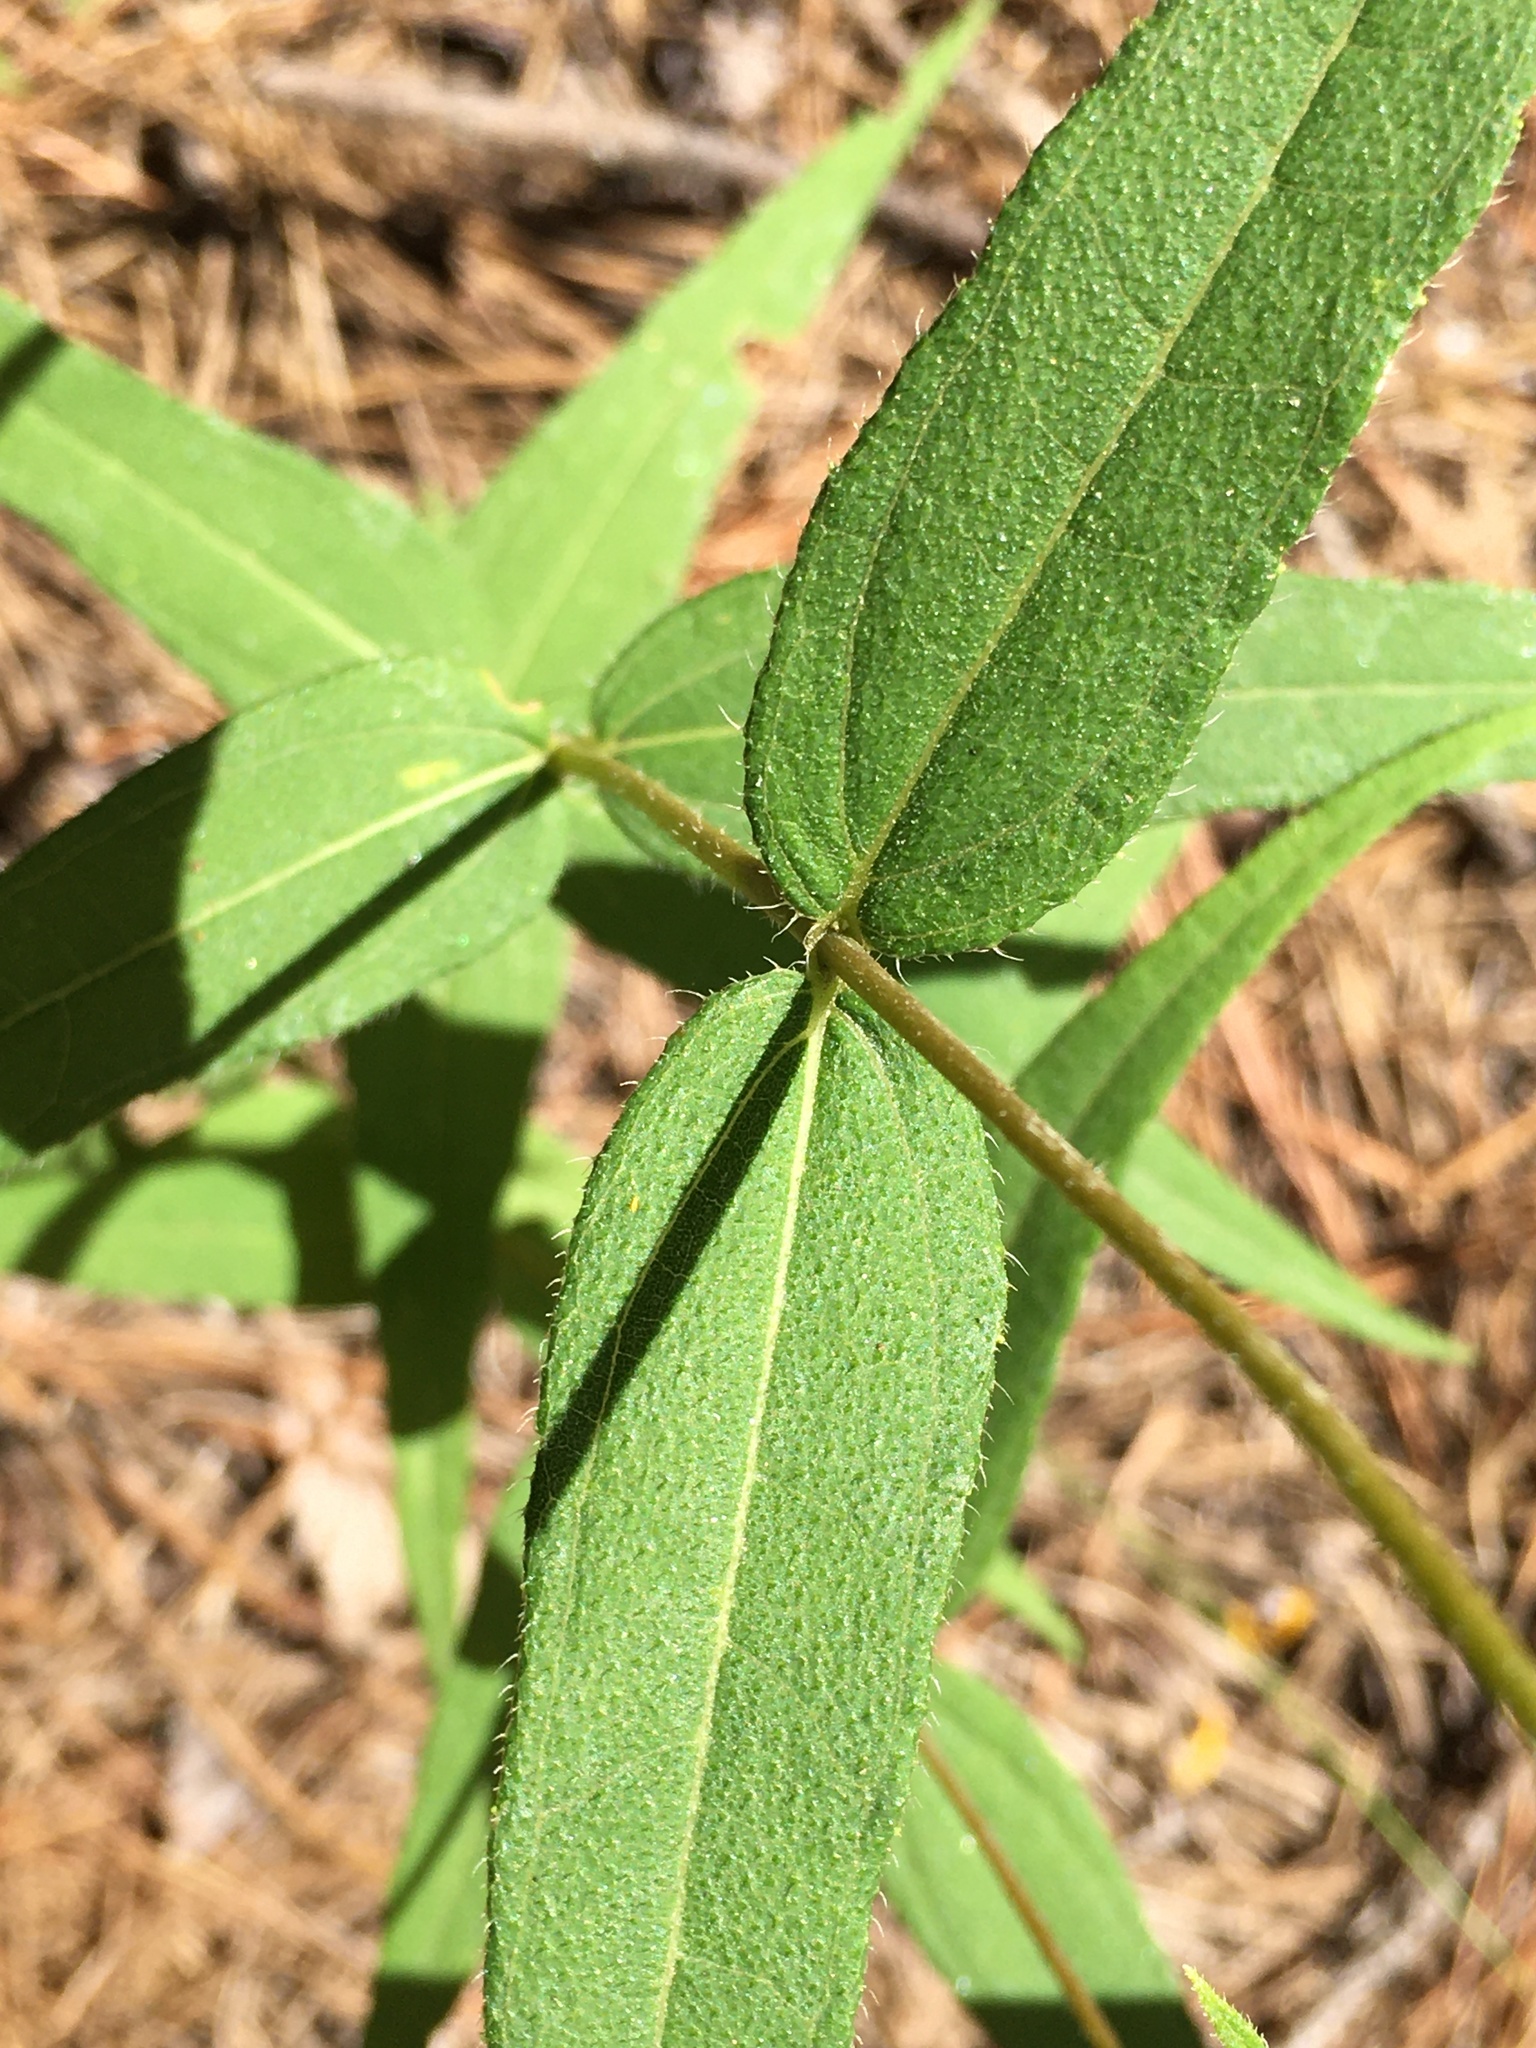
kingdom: Plantae
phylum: Tracheophyta
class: Magnoliopsida
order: Asterales
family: Asteraceae
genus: Helianthus
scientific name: Helianthus divaricatus
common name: Divergent sunflower
